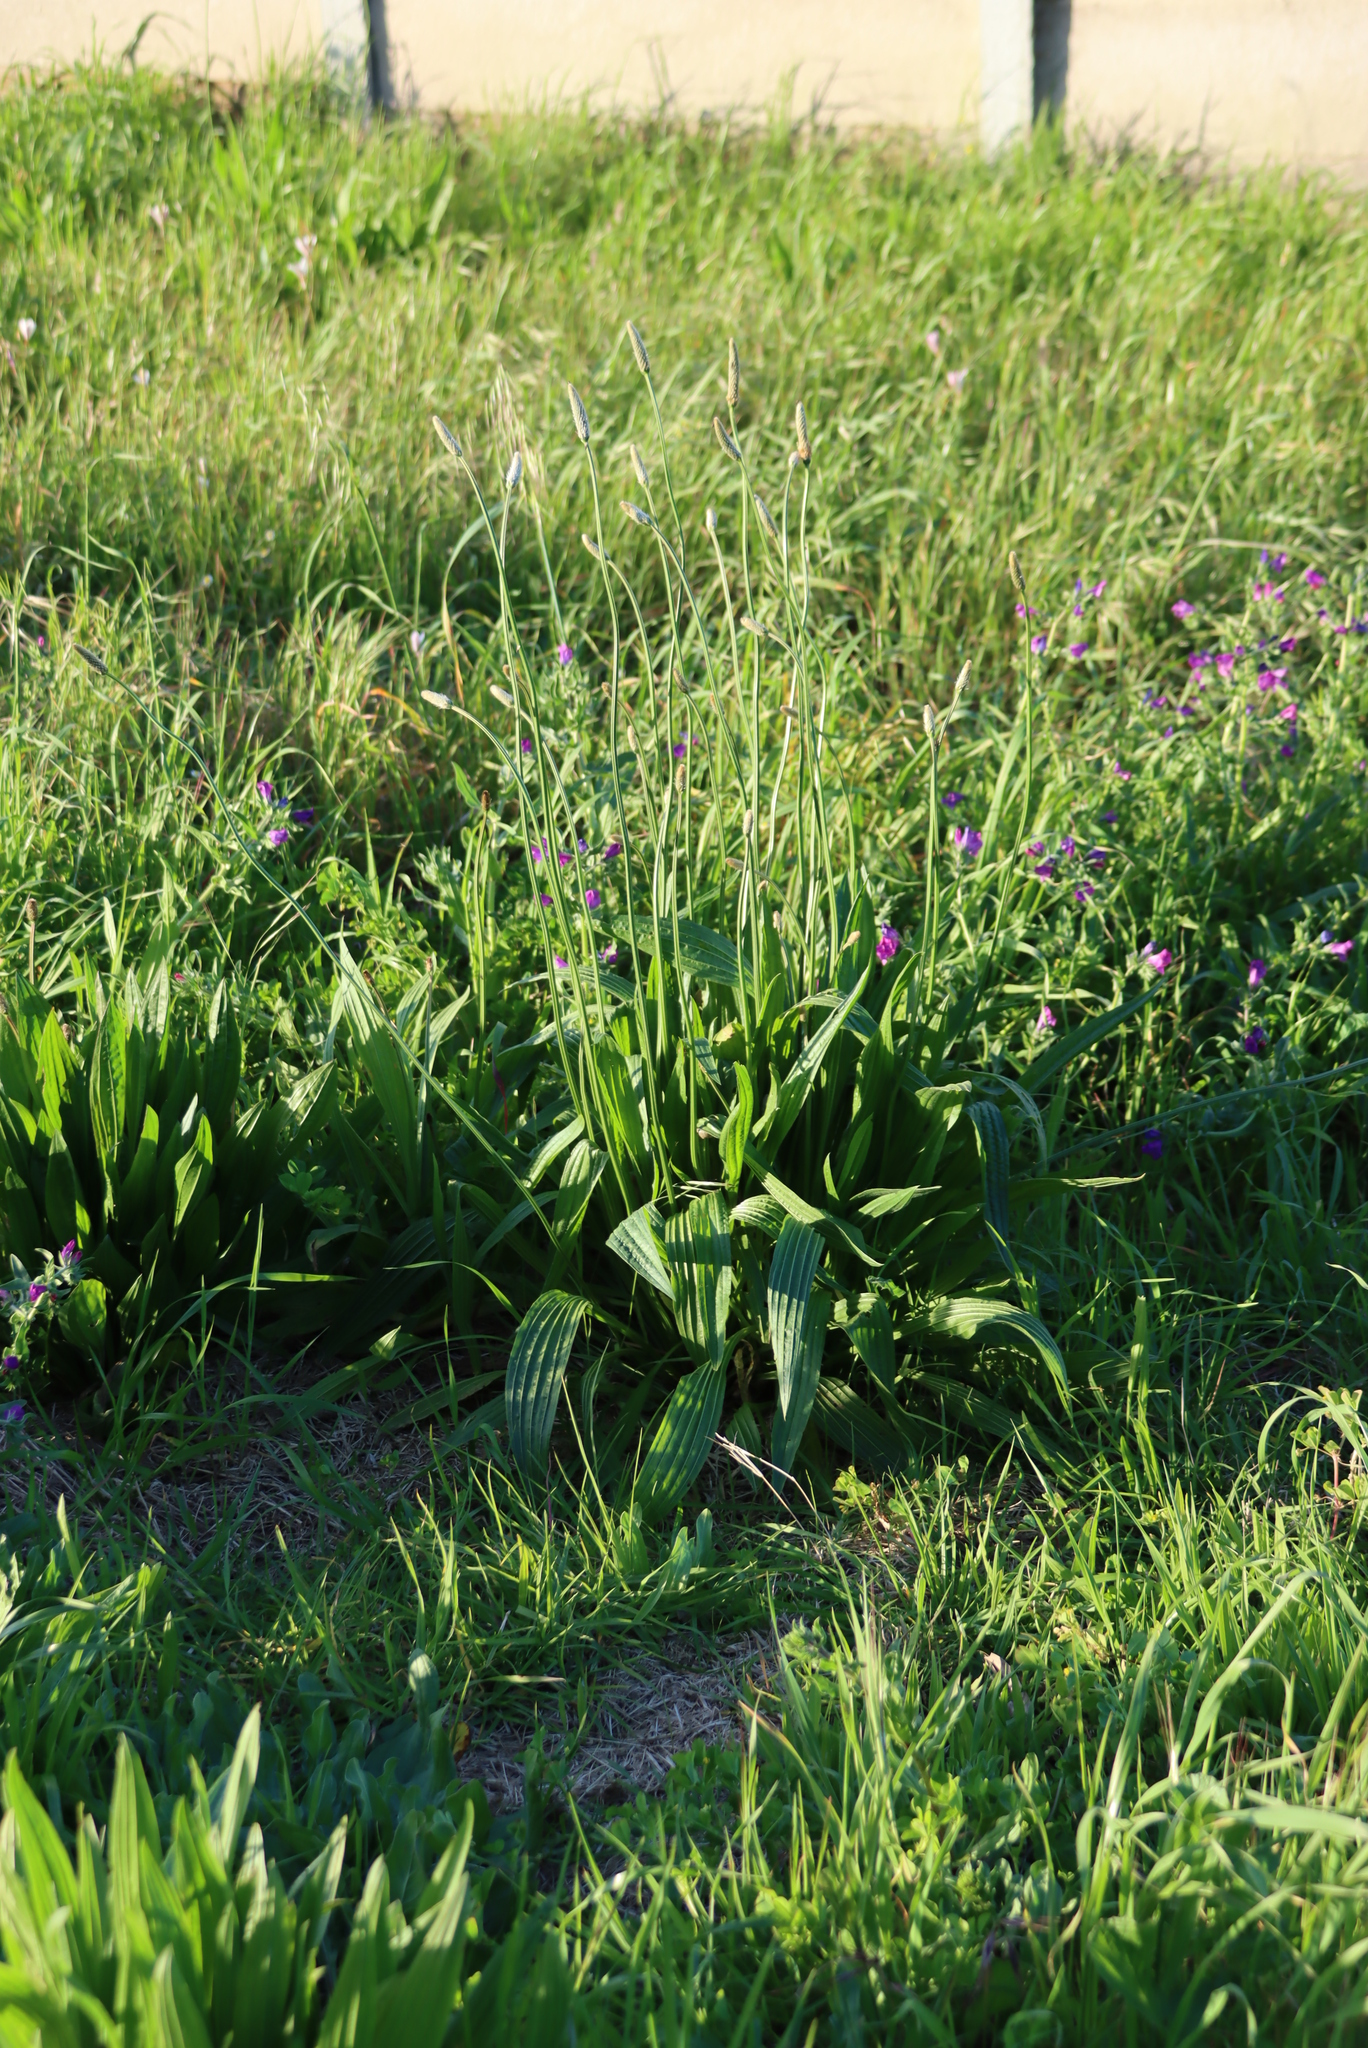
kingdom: Plantae
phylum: Tracheophyta
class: Magnoliopsida
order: Lamiales
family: Plantaginaceae
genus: Plantago
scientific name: Plantago lanceolata
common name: Ribwort plantain
